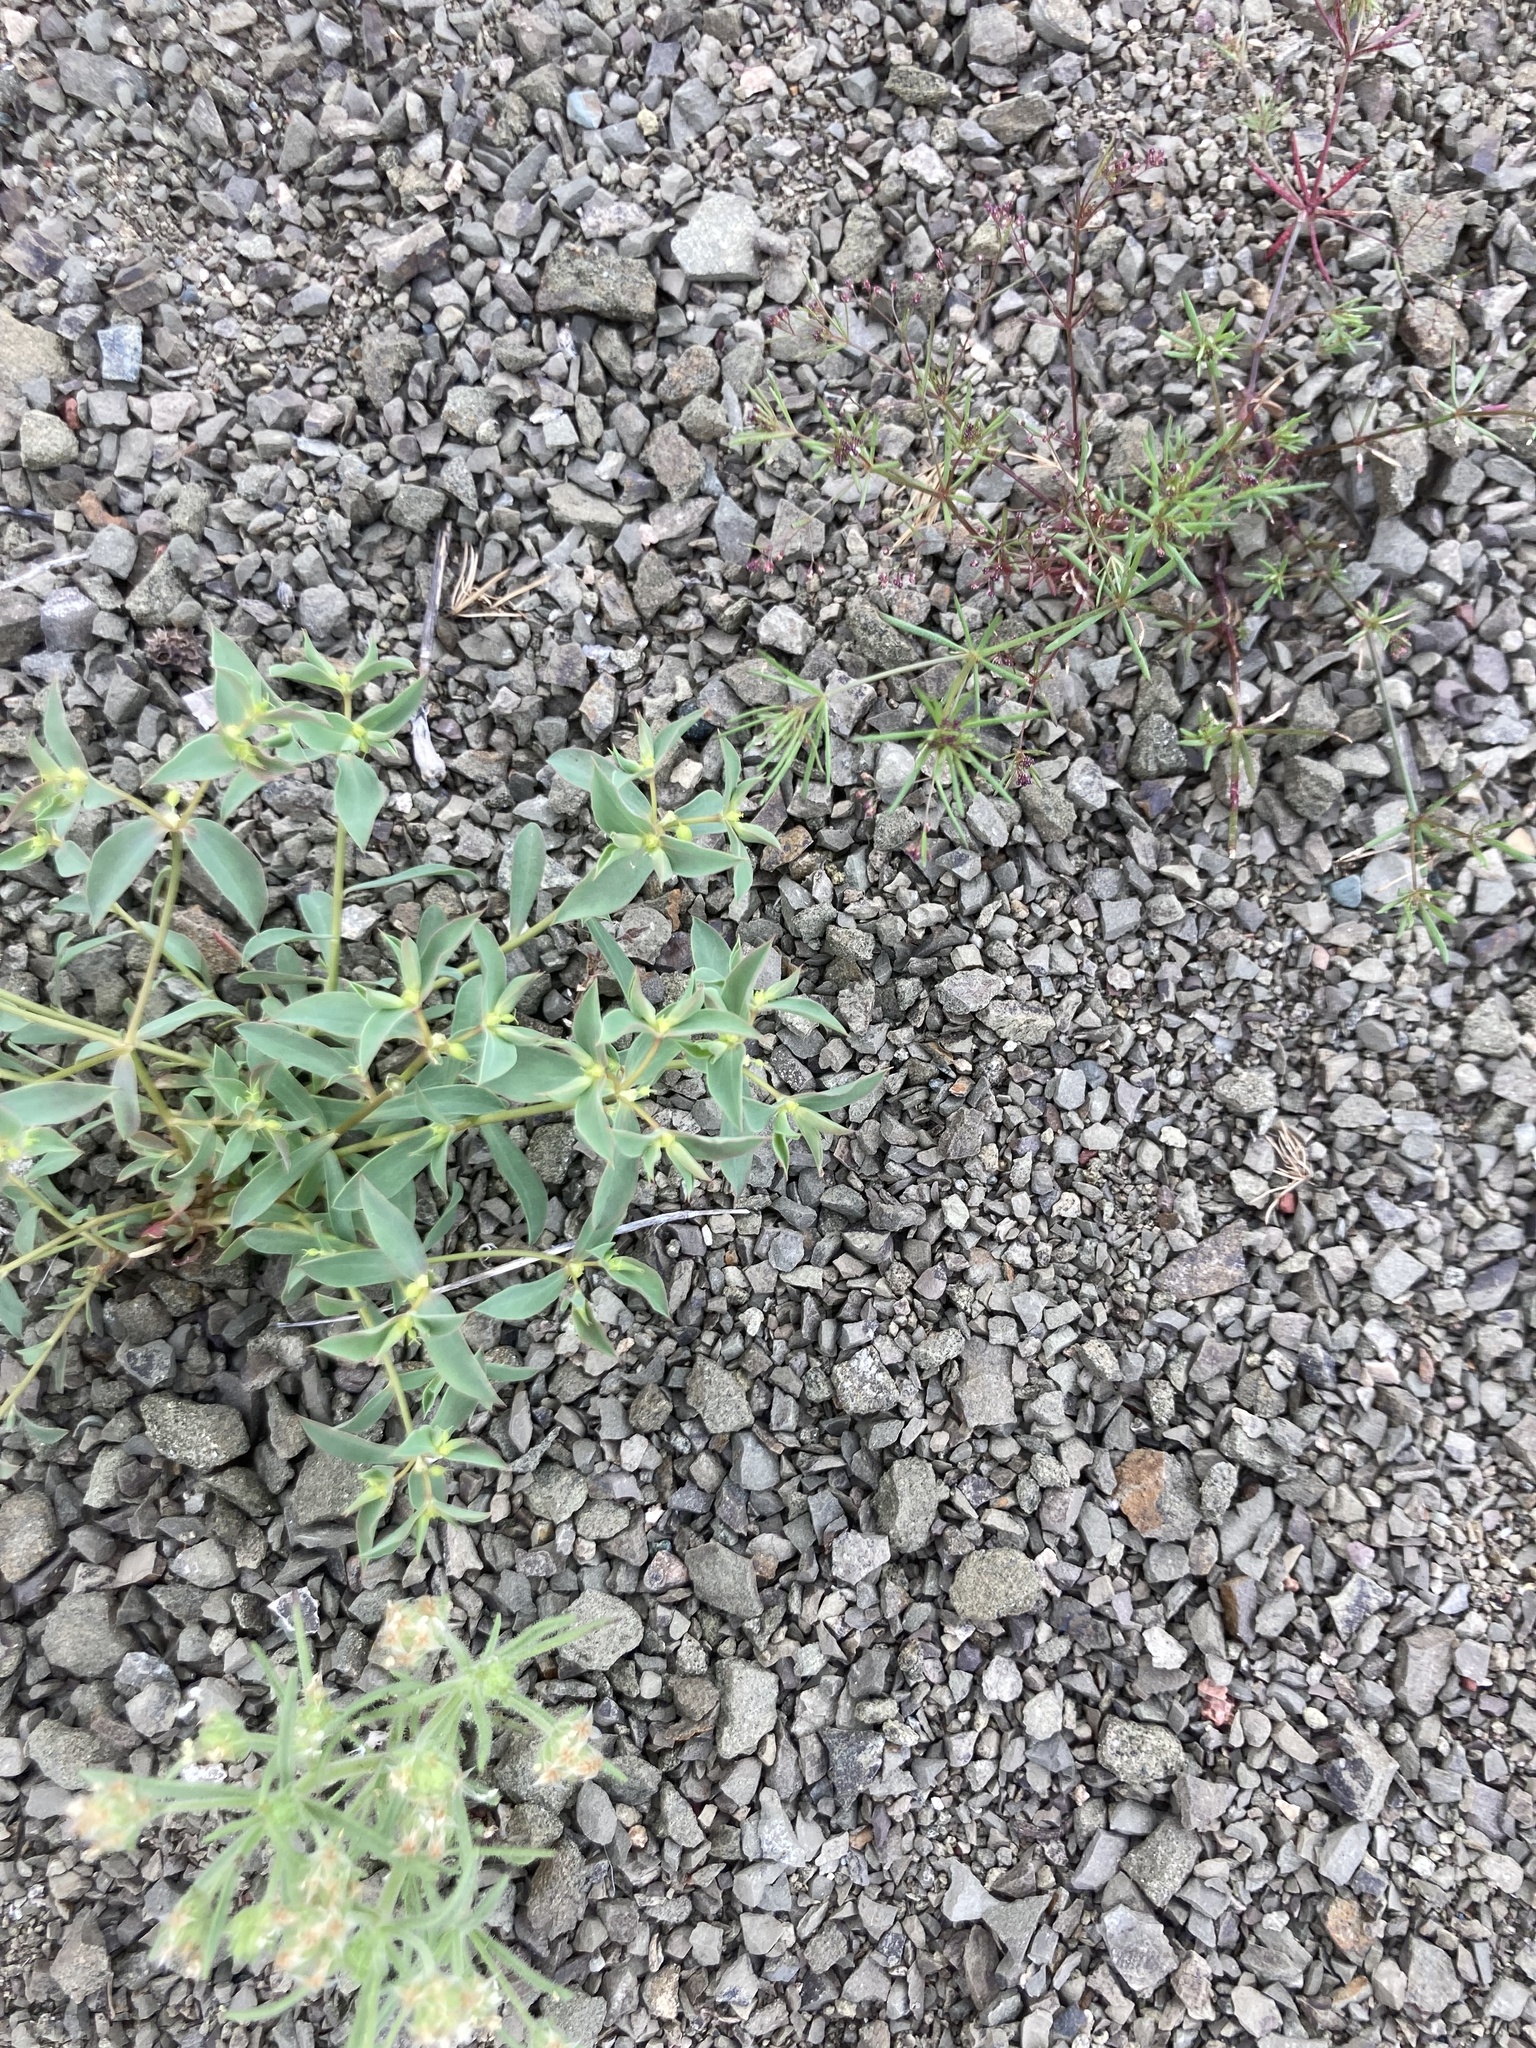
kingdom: Plantae
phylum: Tracheophyta
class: Magnoliopsida
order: Malpighiales
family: Euphorbiaceae
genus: Euphorbia
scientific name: Euphorbia falcata
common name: Sickle spurge
